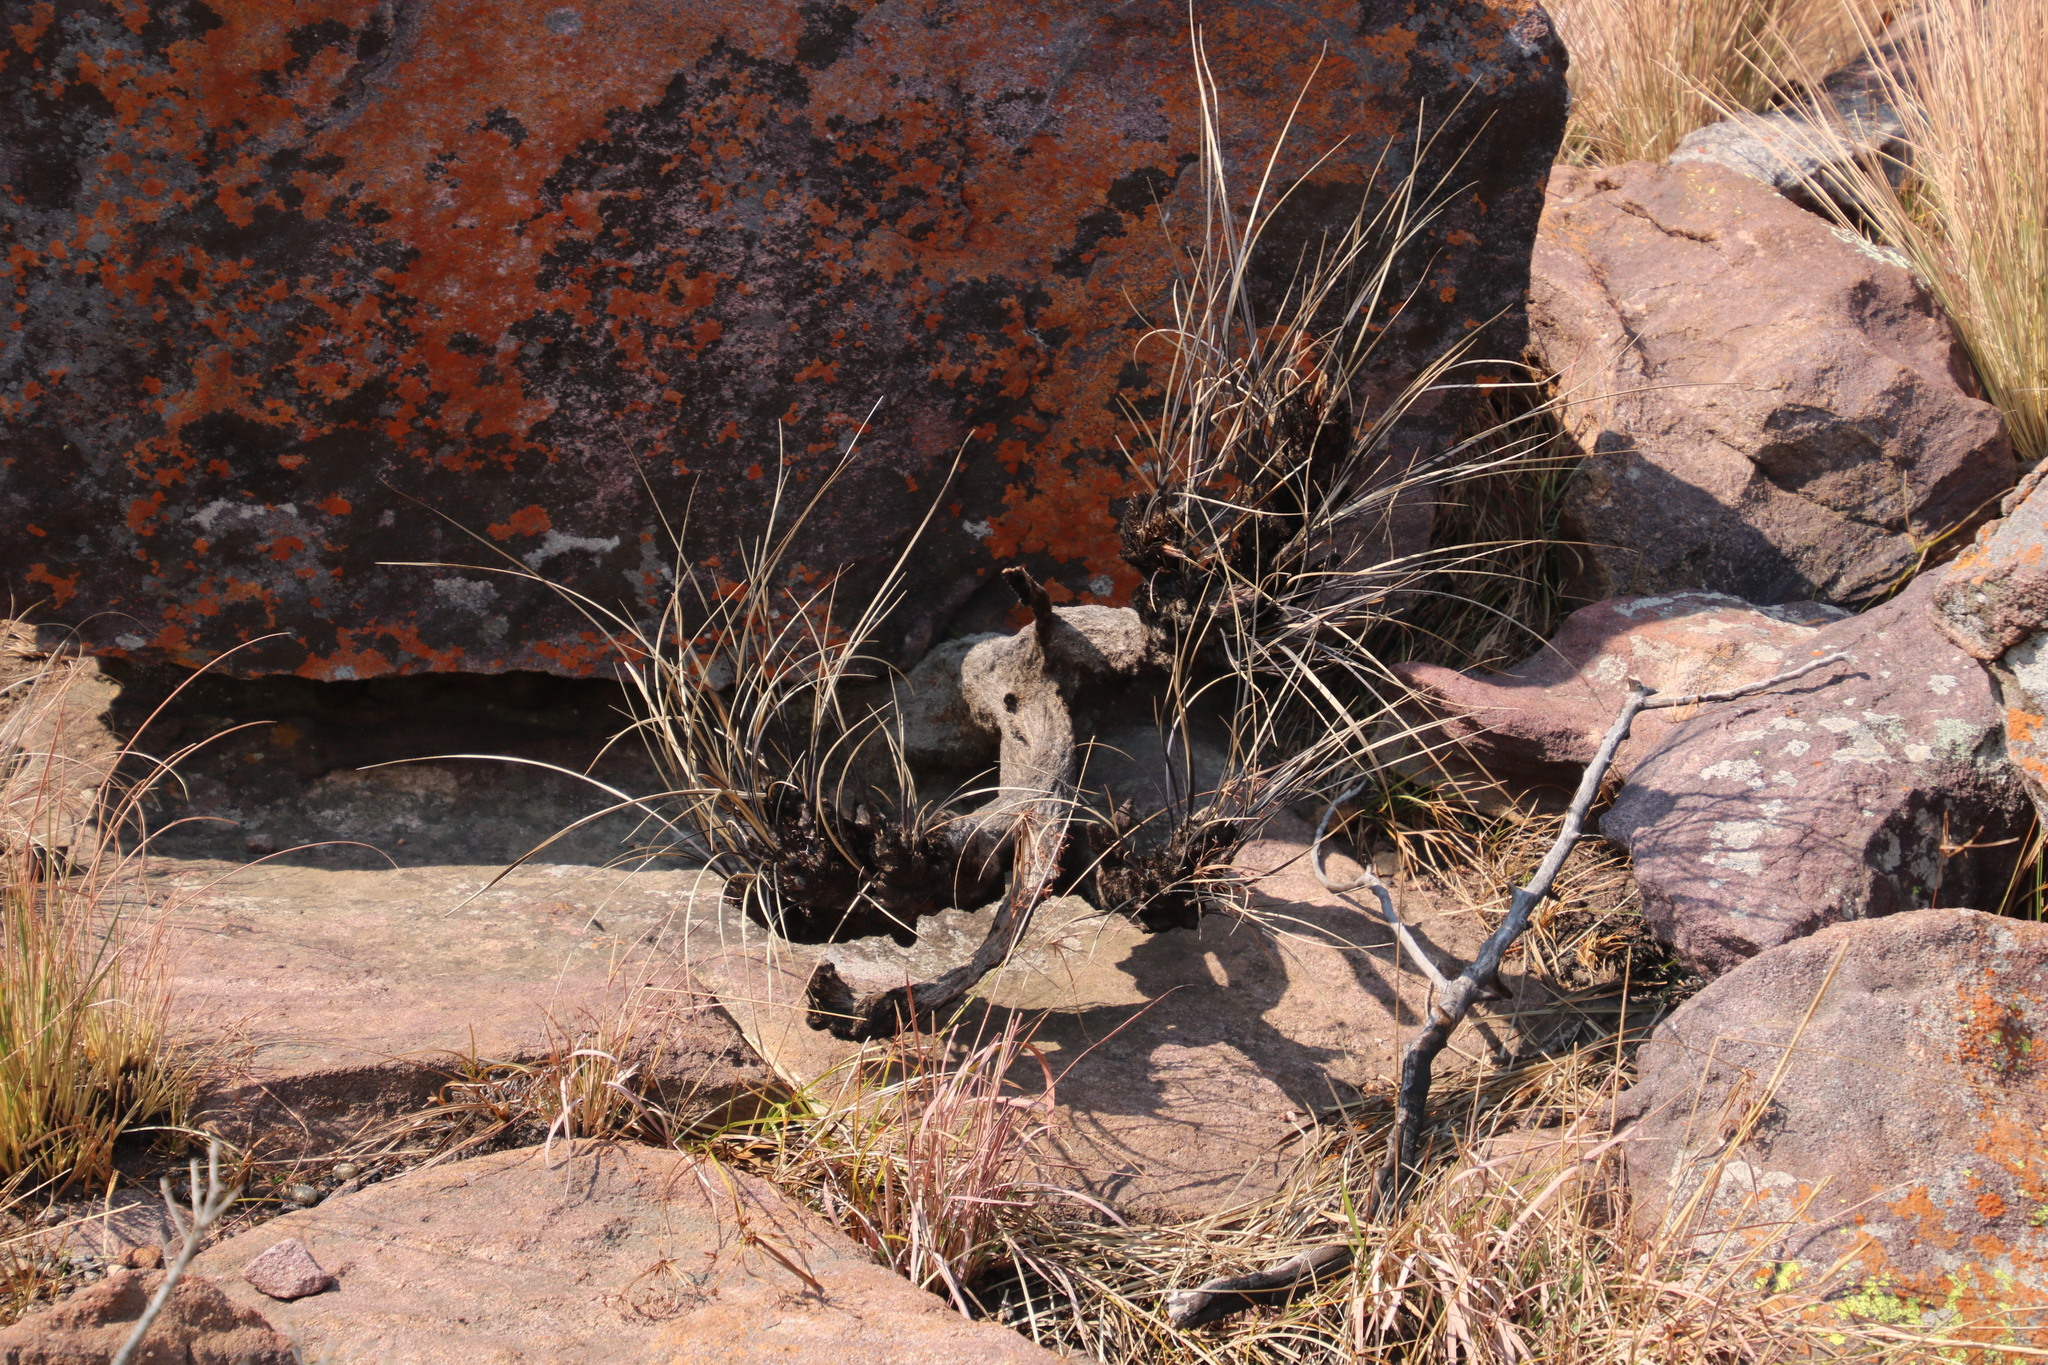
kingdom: Plantae
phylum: Tracheophyta
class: Liliopsida
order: Pandanales
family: Velloziaceae
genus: Xerophyta
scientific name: Xerophyta retinervis
